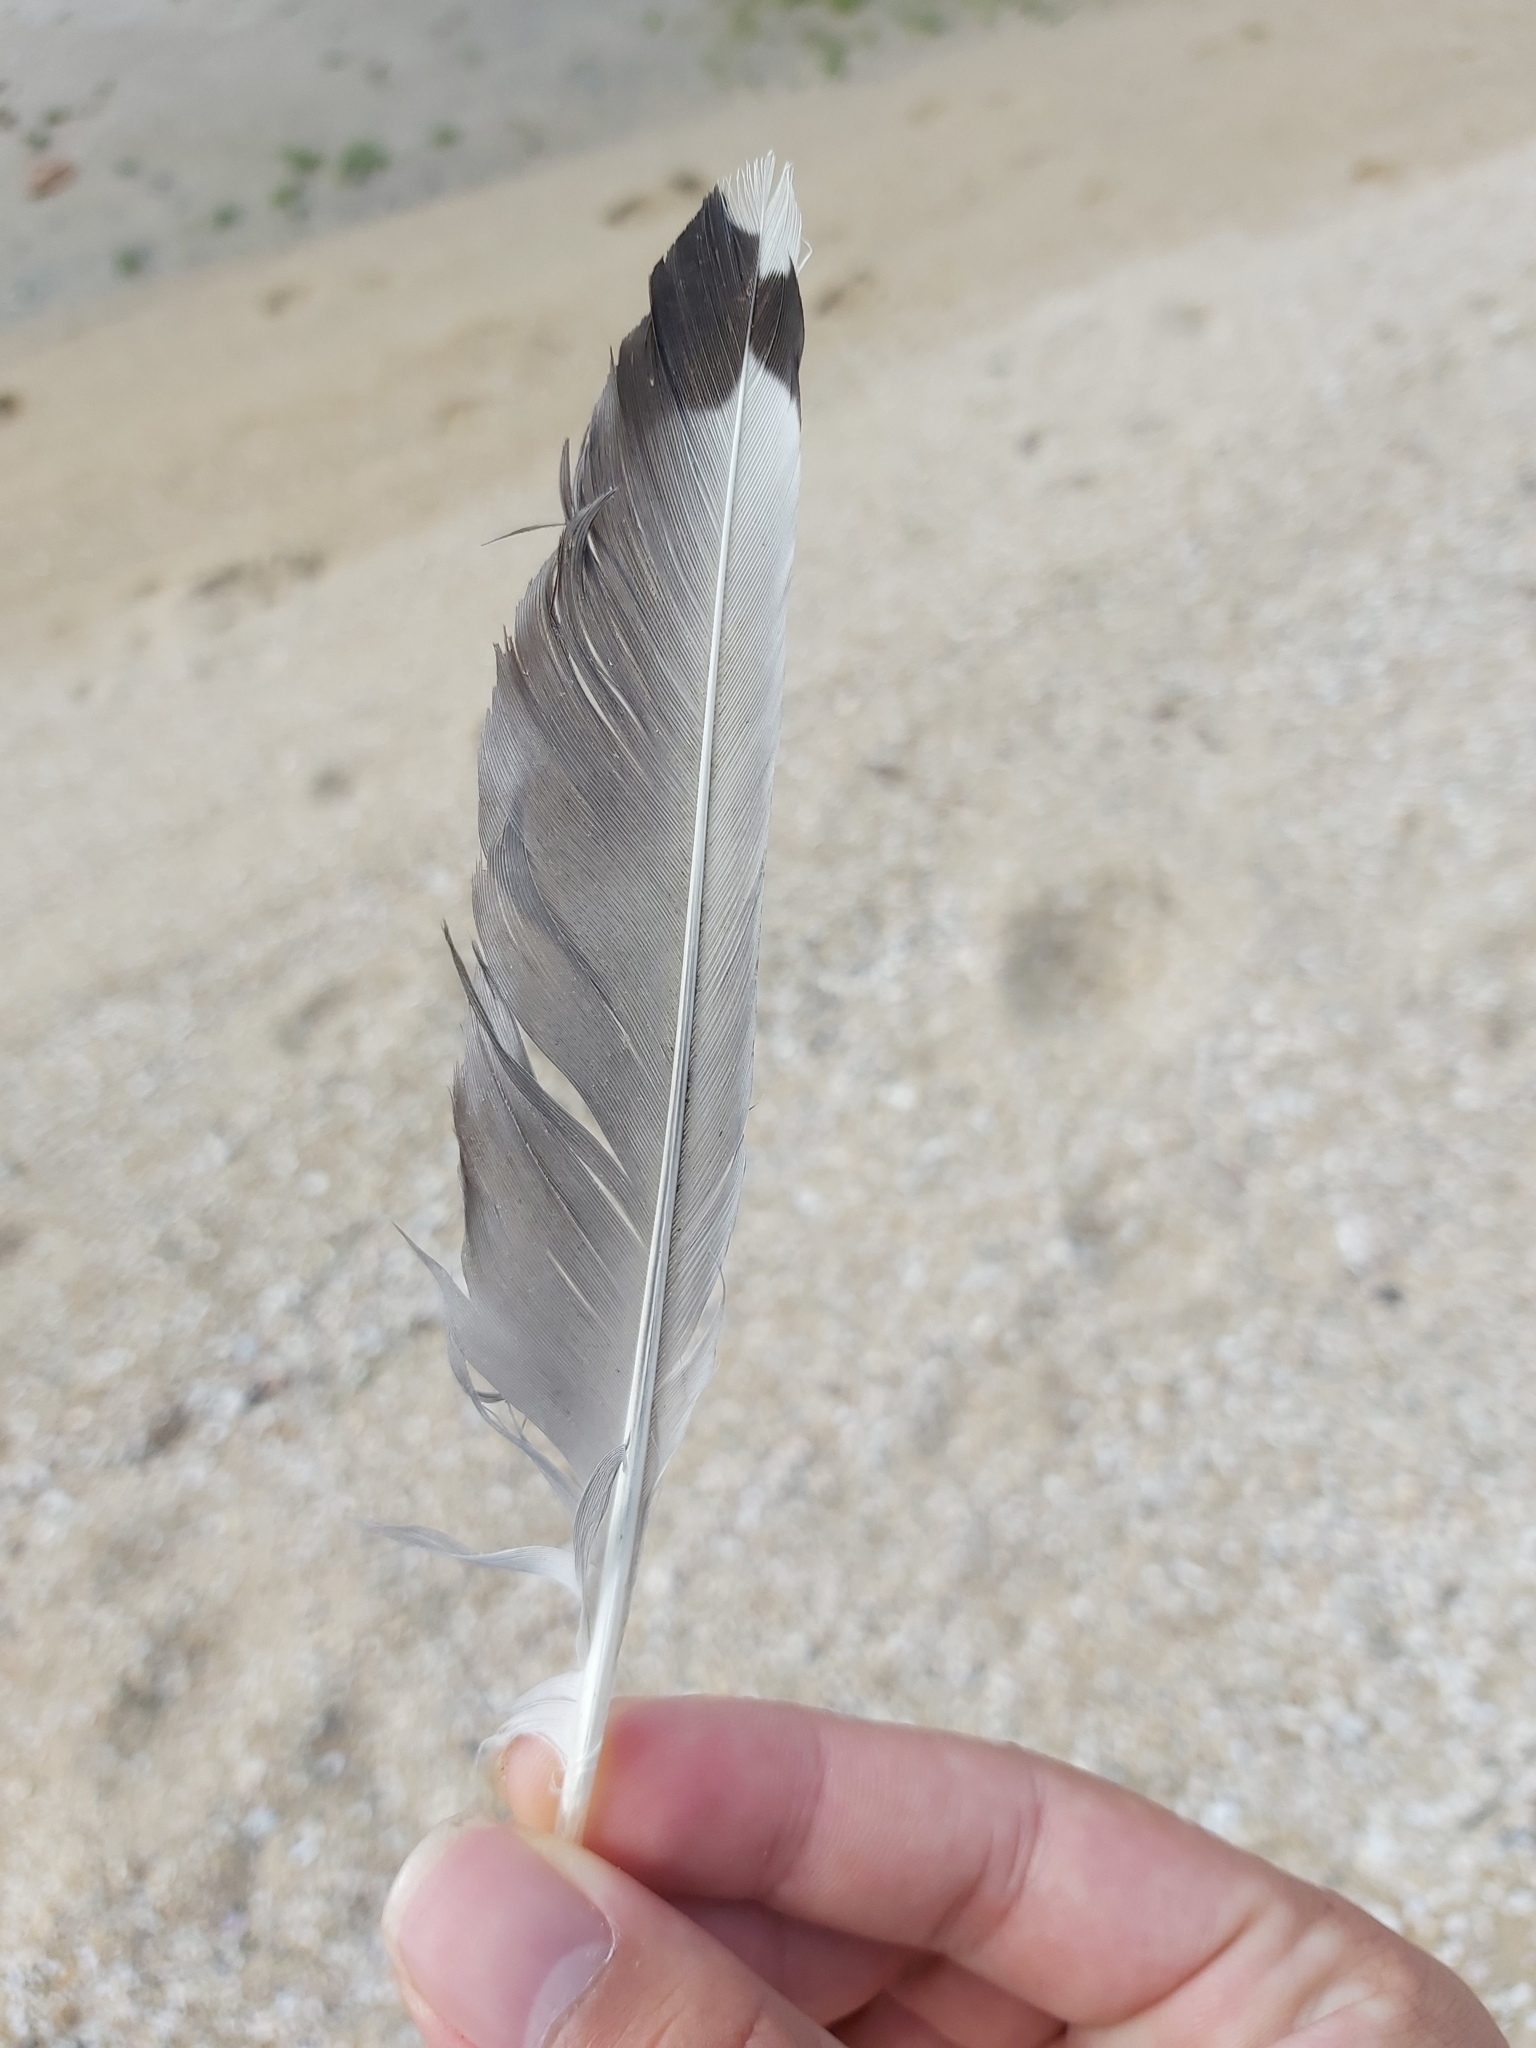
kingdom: Animalia
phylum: Chordata
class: Aves
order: Charadriiformes
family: Laridae
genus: Chroicocephalus
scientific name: Chroicocephalus novaehollandiae
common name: Silver gull
